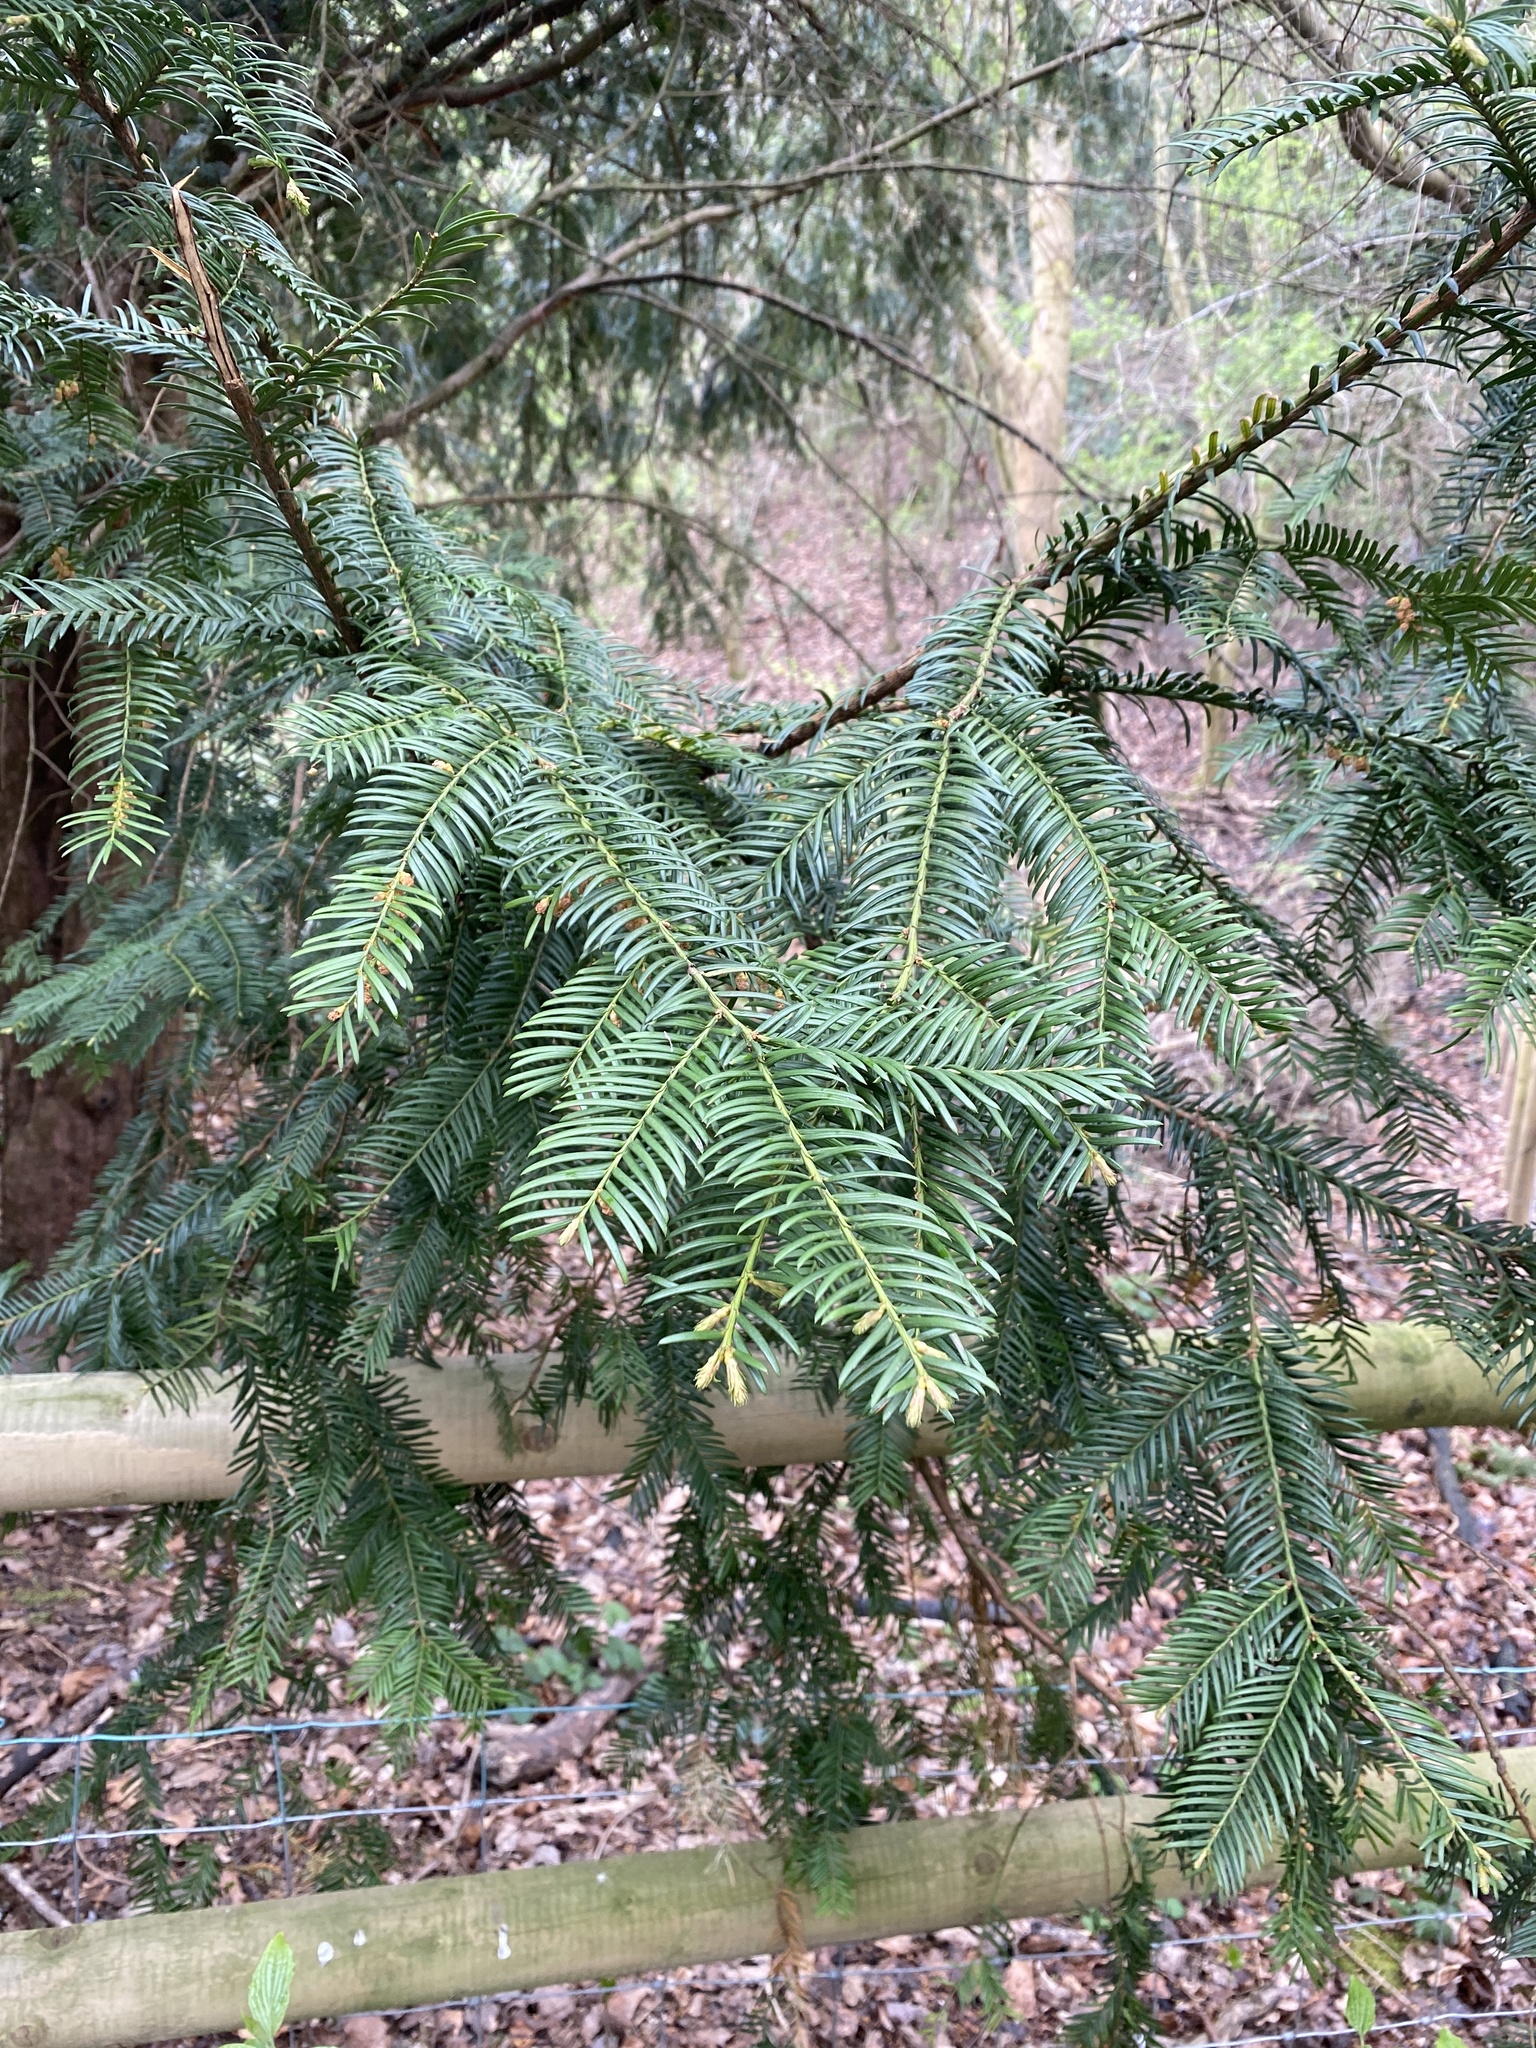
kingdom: Plantae
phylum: Tracheophyta
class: Pinopsida
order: Pinales
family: Taxaceae
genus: Taxus
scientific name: Taxus baccata
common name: Yew
